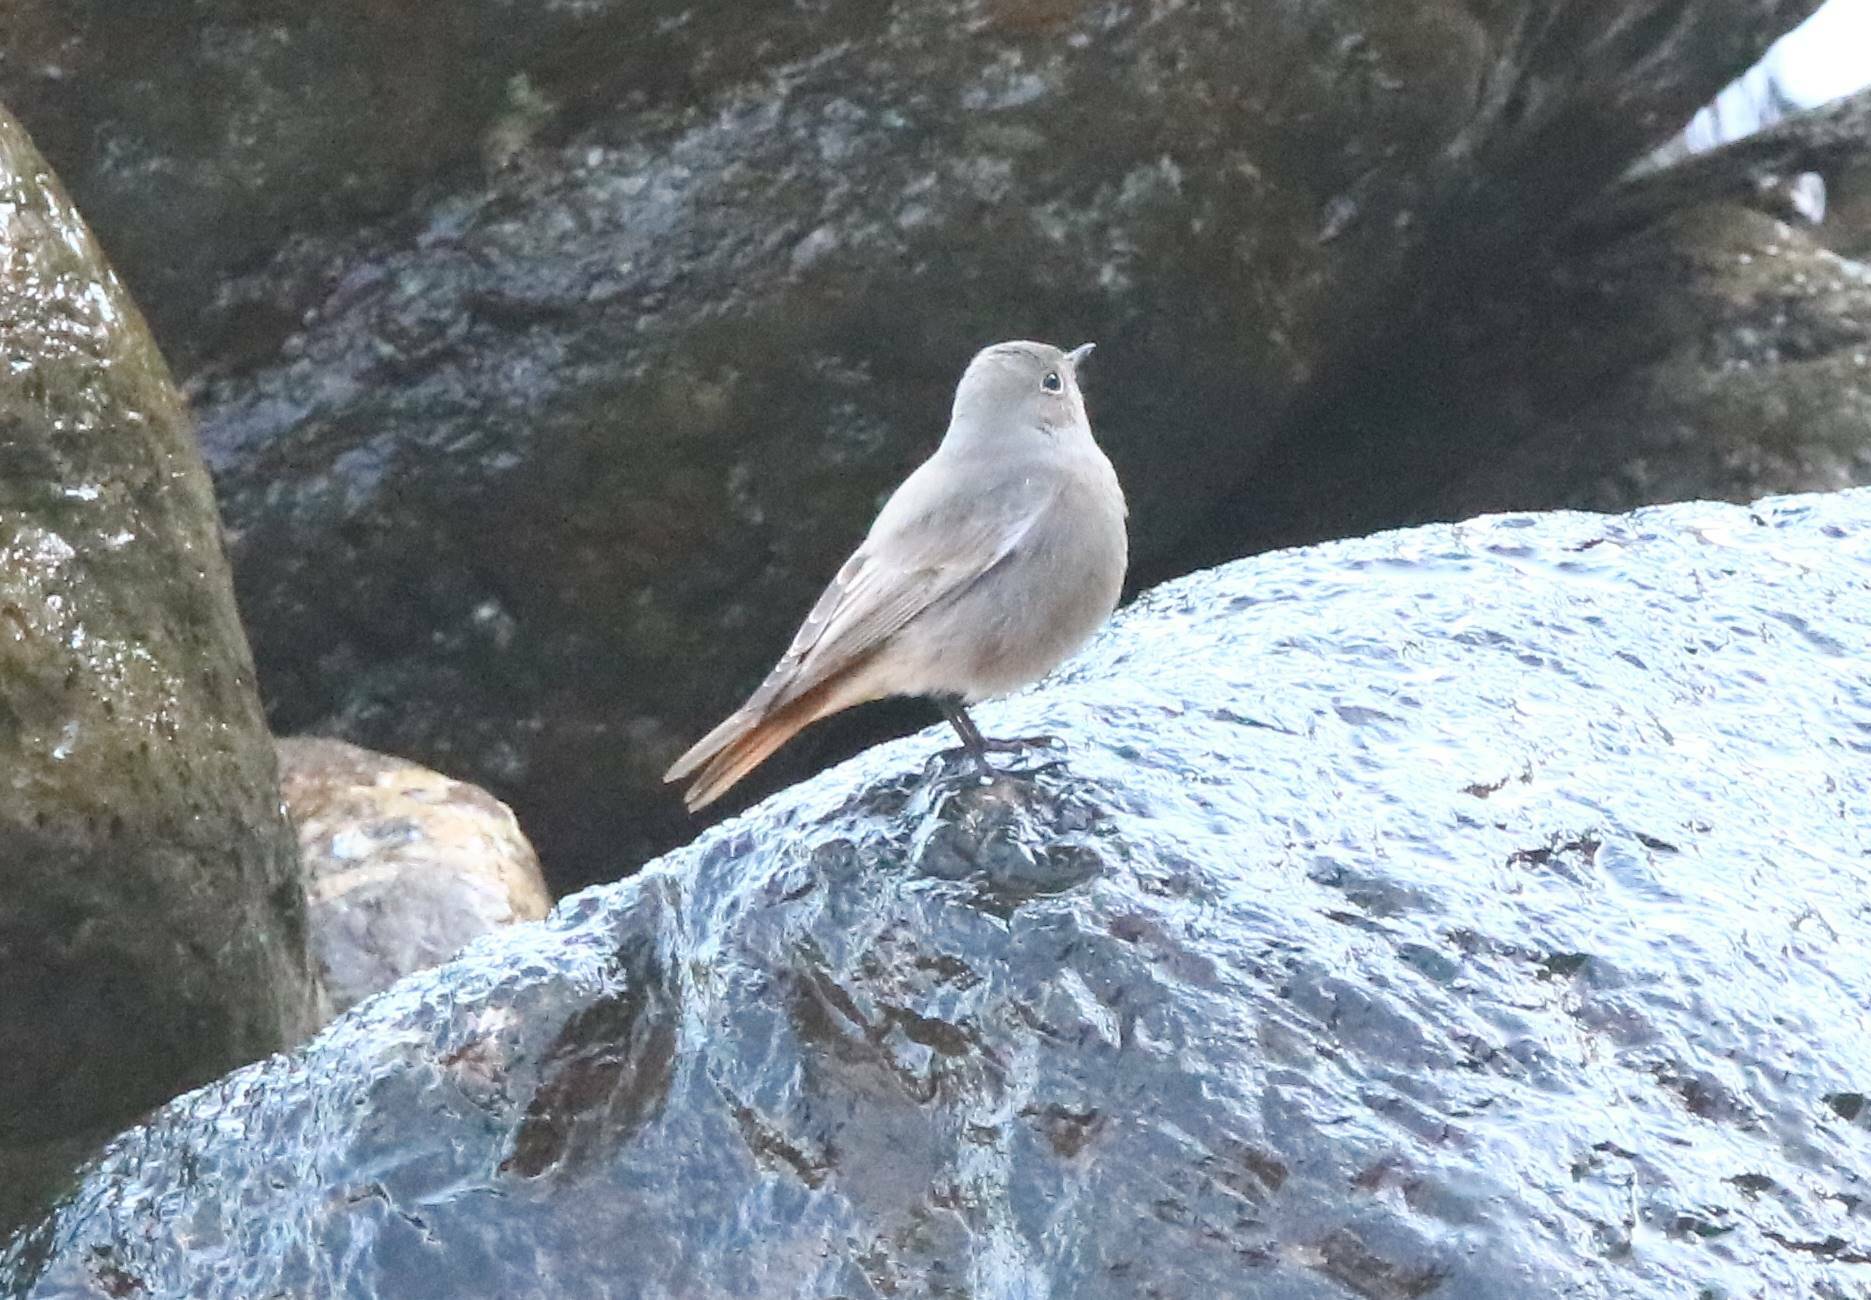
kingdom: Animalia
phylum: Chordata
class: Aves
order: Passeriformes
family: Muscicapidae
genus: Phoenicurus
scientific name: Phoenicurus ochruros
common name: Black redstart
